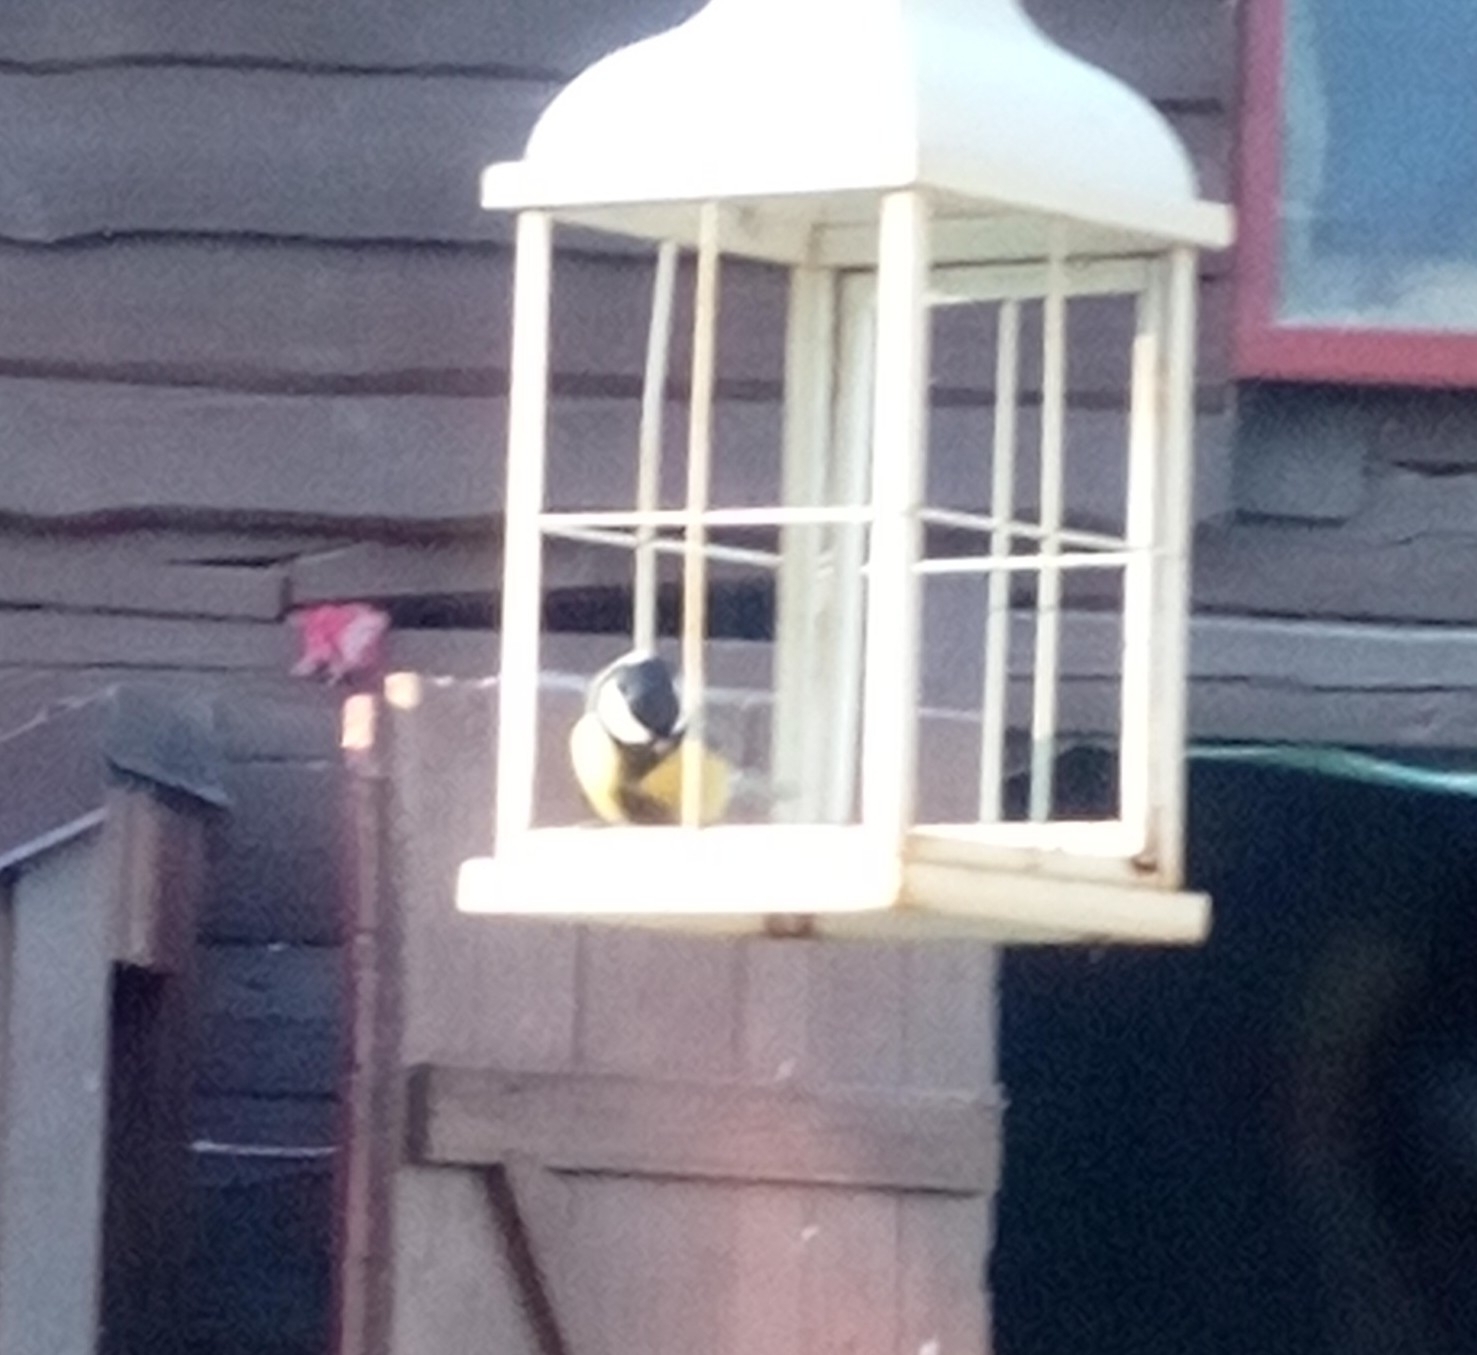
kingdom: Animalia
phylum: Chordata
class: Aves
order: Passeriformes
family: Paridae
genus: Parus
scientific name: Parus major
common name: Great tit
